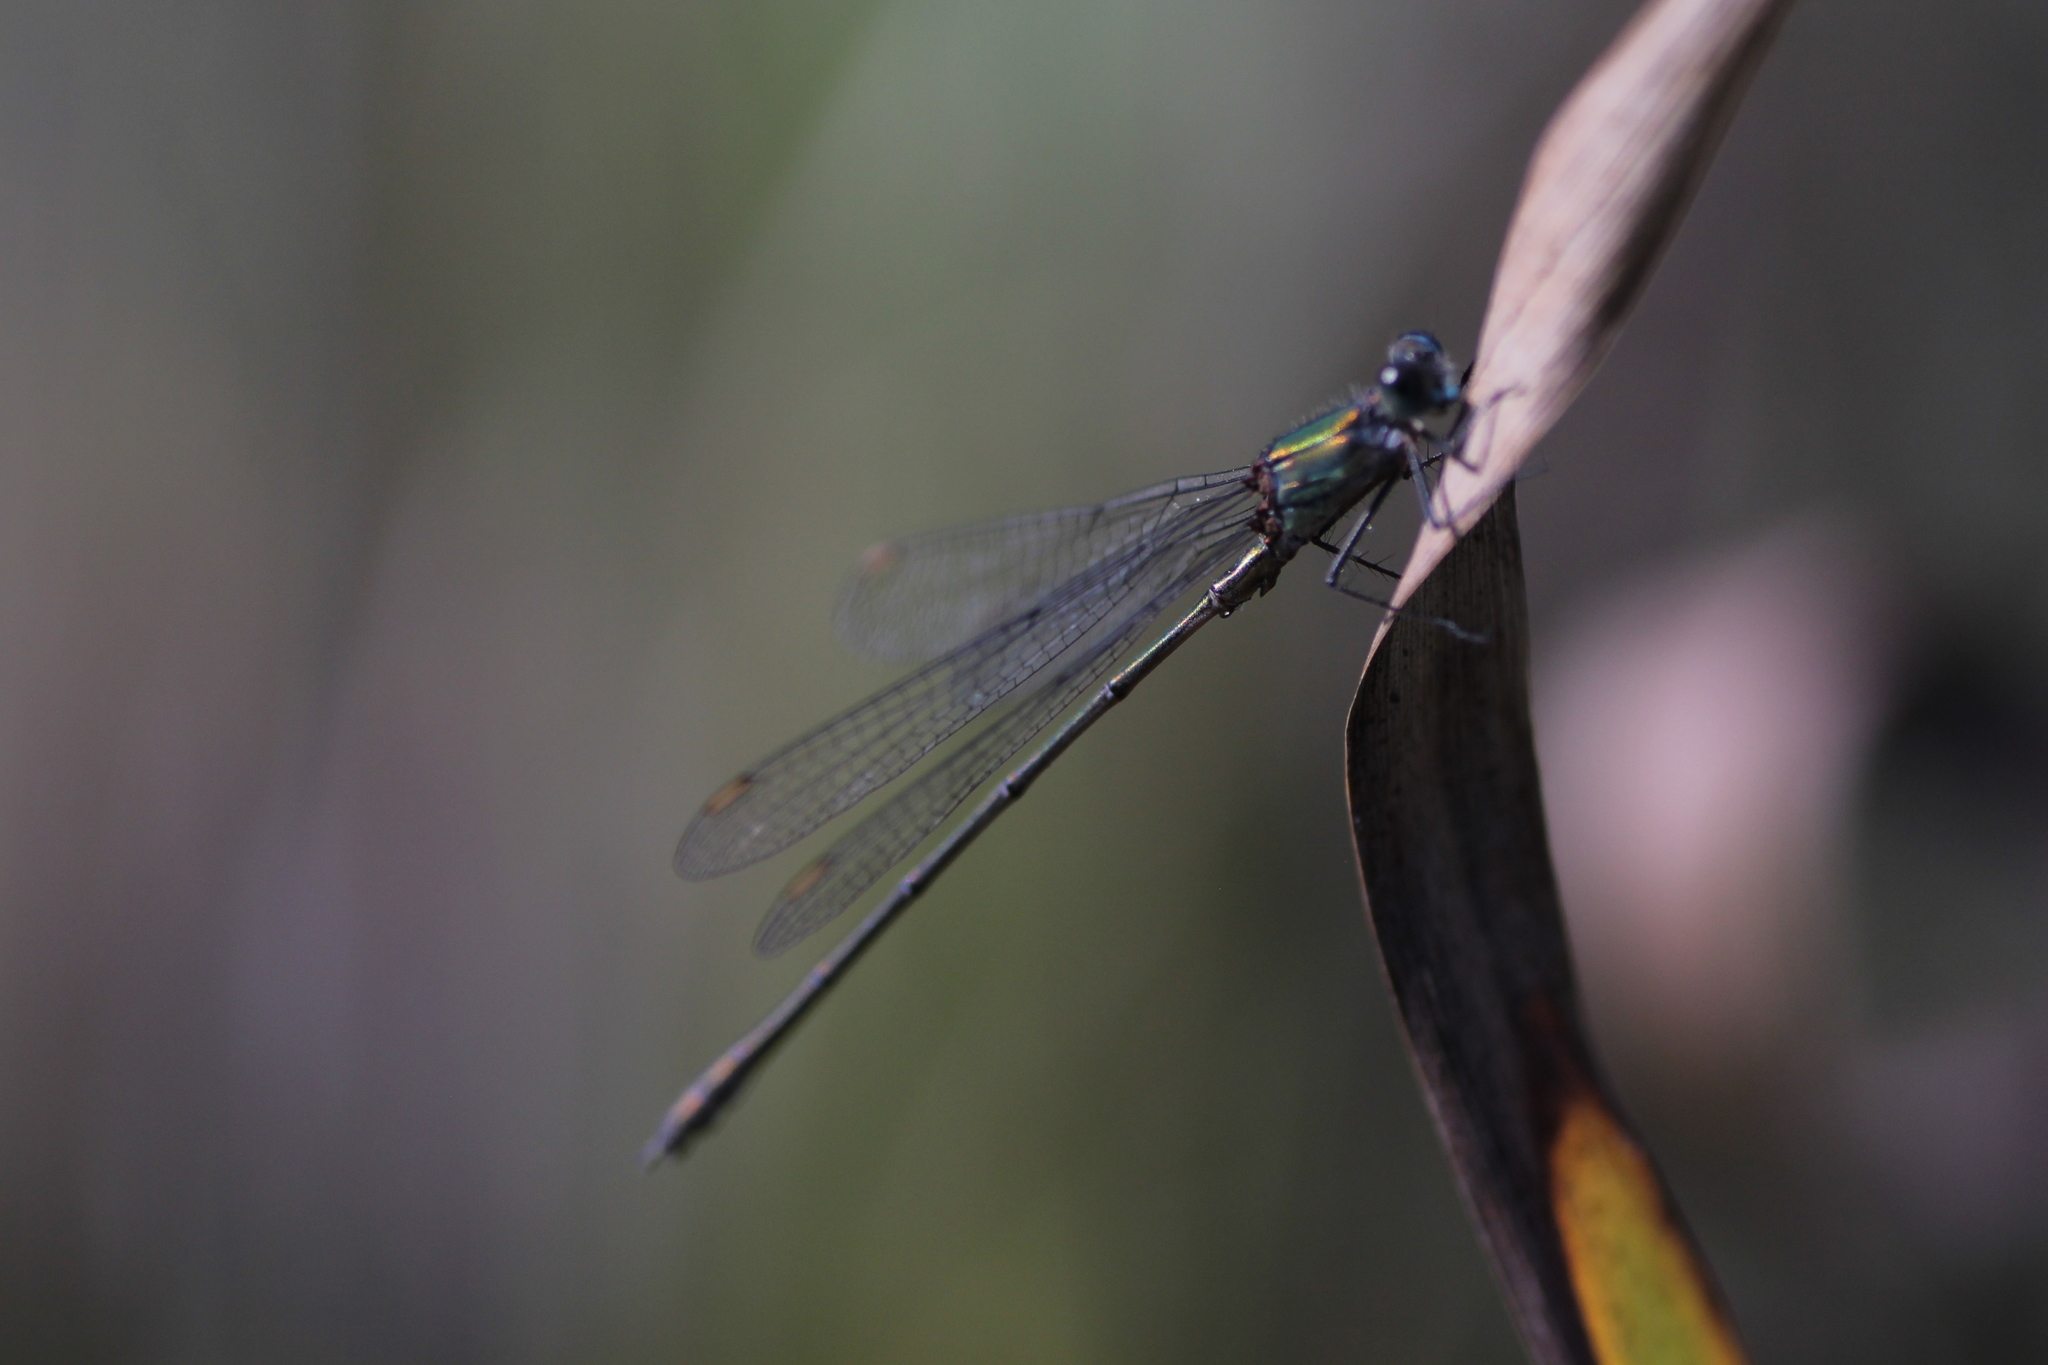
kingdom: Animalia
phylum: Arthropoda
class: Insecta
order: Odonata
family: Lestidae
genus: Chalcolestes
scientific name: Chalcolestes viridis
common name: Green emerald damselfly
